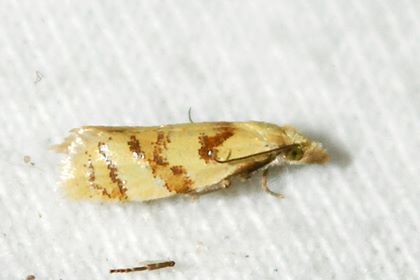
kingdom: Animalia
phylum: Arthropoda
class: Insecta
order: Lepidoptera
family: Tortricidae
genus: Phtheochroa
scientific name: Phtheochroa vitellinana
